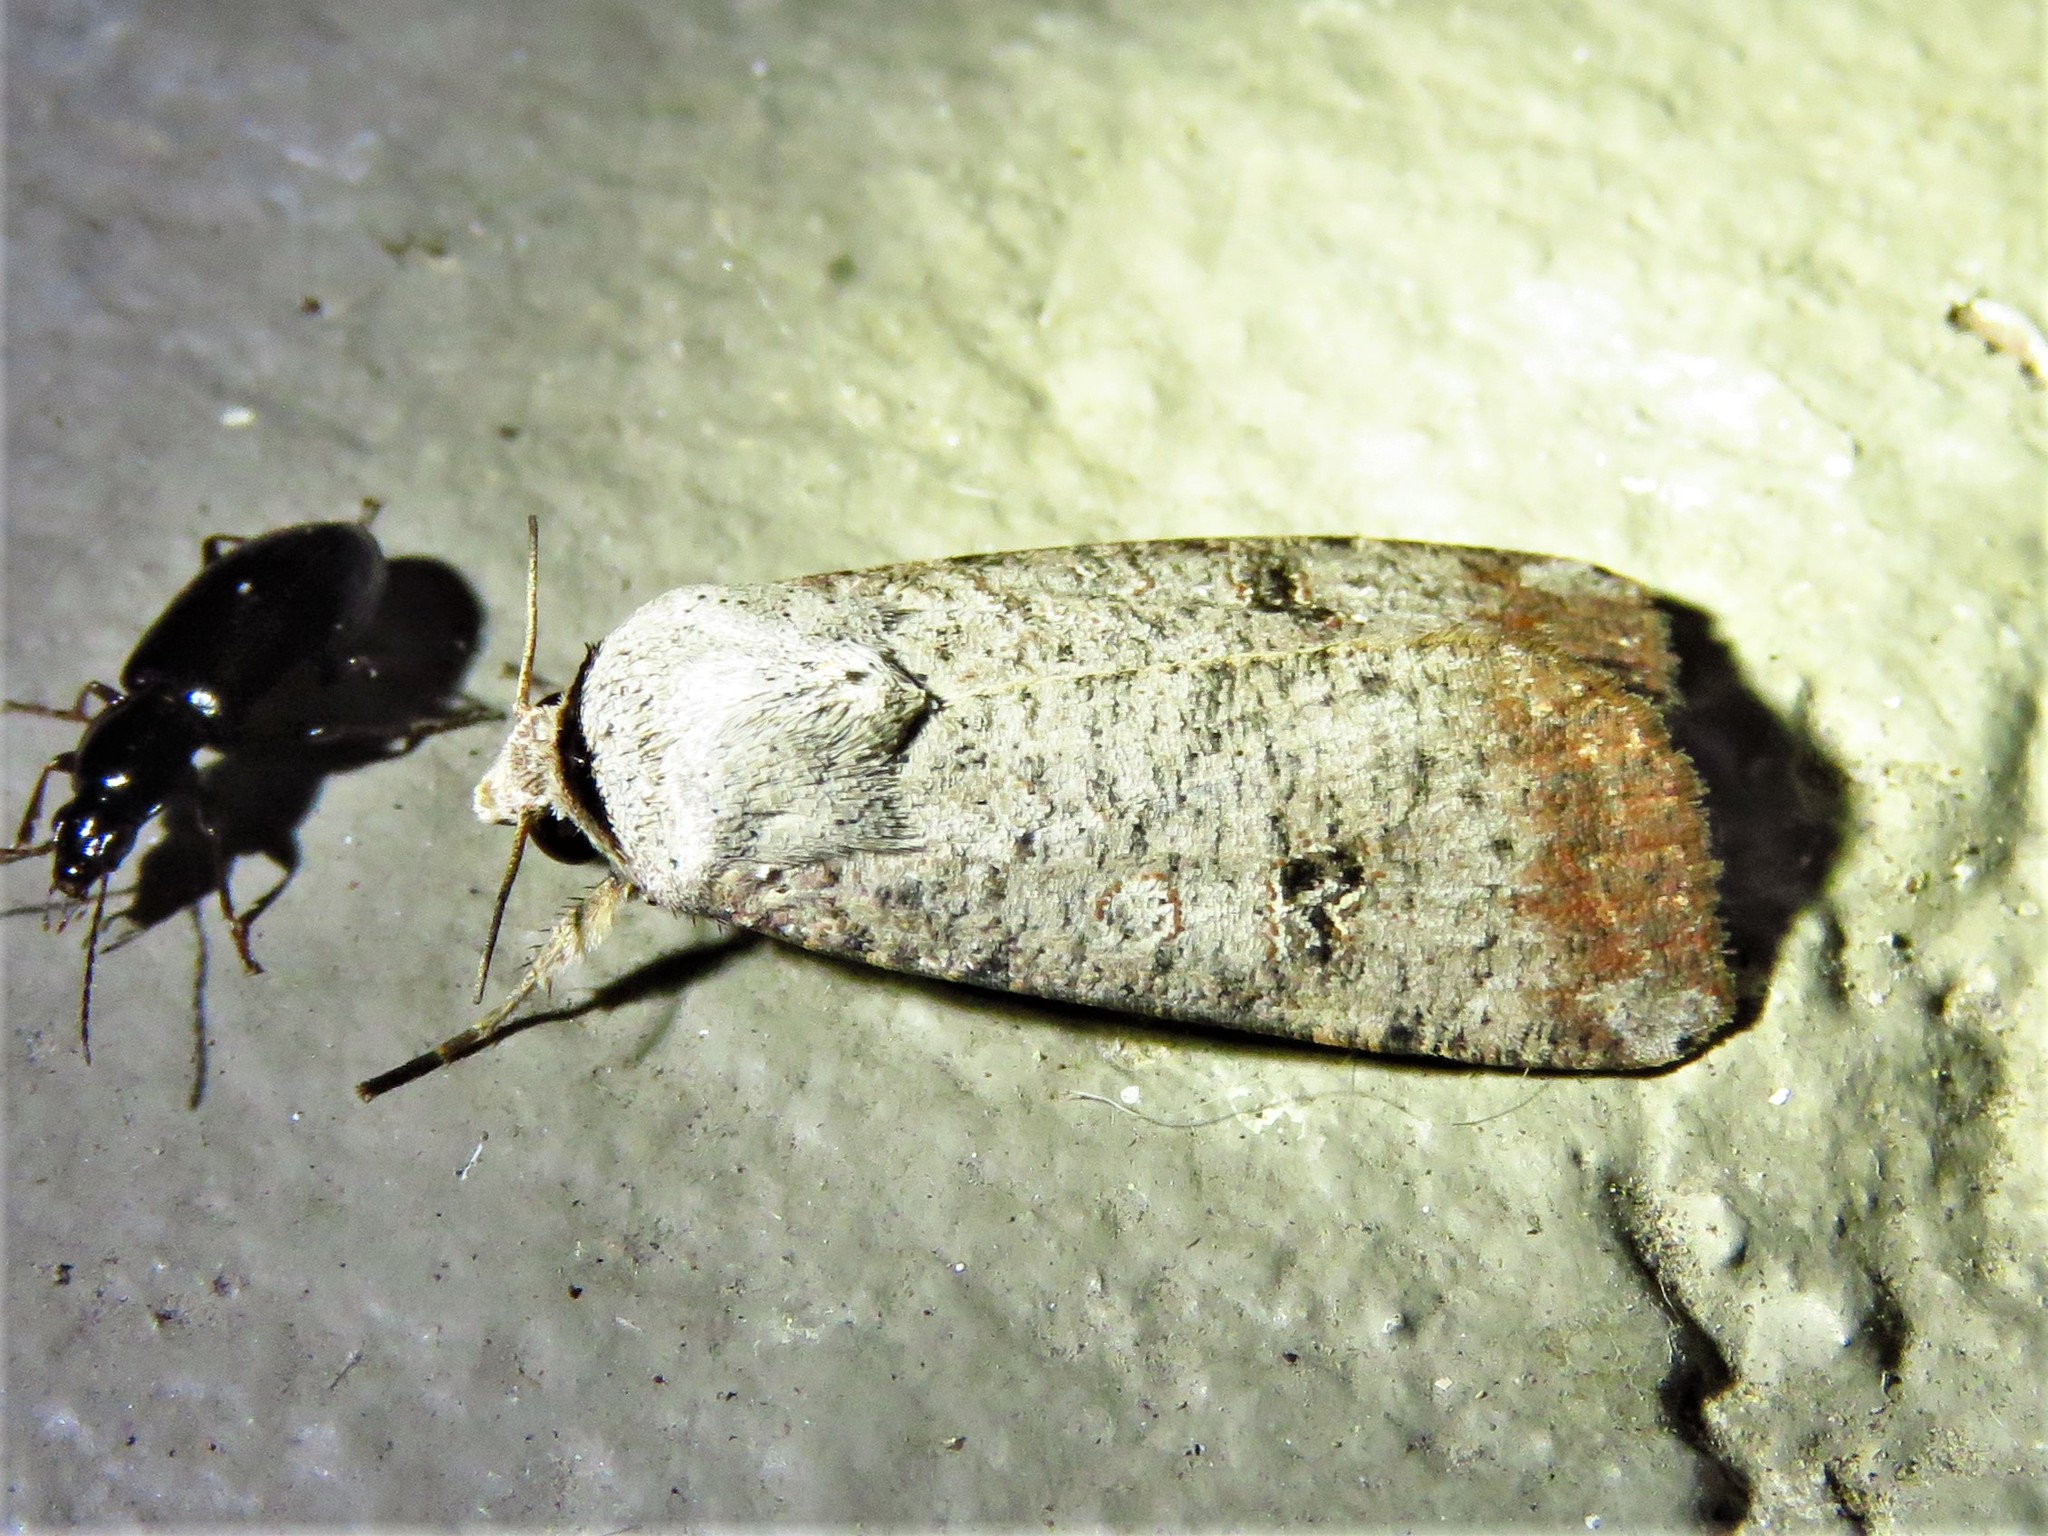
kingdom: Animalia
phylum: Arthropoda
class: Insecta
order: Lepidoptera
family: Noctuidae
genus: Anicla
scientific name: Anicla infecta
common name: Green cutworm
